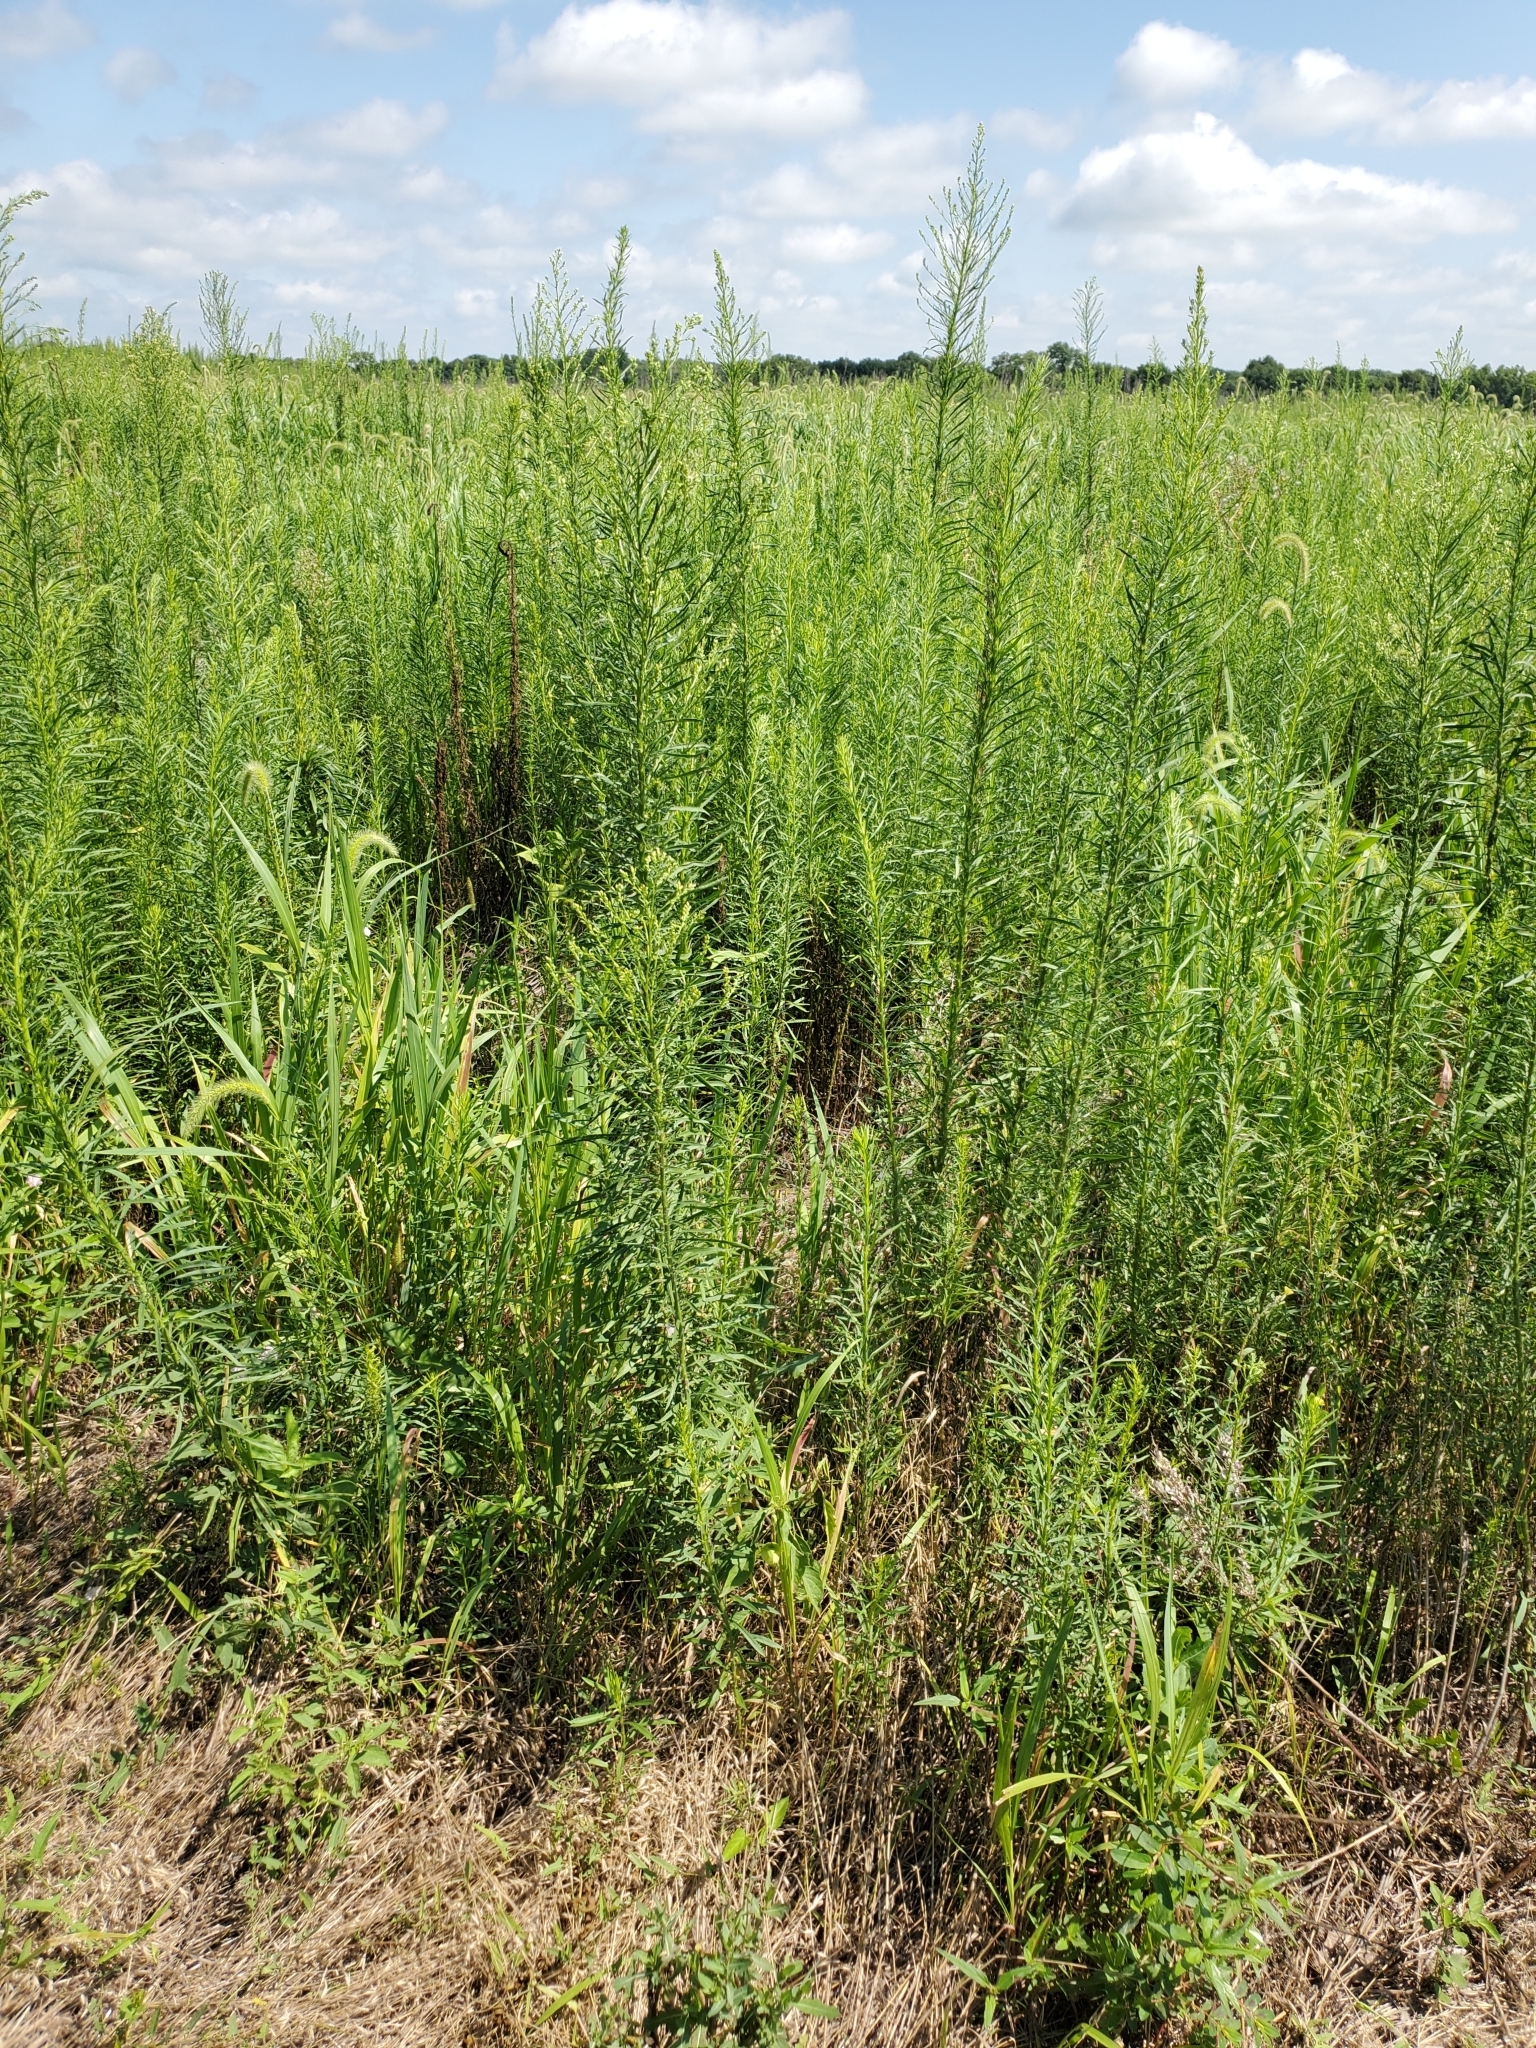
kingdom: Plantae
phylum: Tracheophyta
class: Magnoliopsida
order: Asterales
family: Asteraceae
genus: Erigeron
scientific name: Erigeron canadensis
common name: Canadian fleabane
